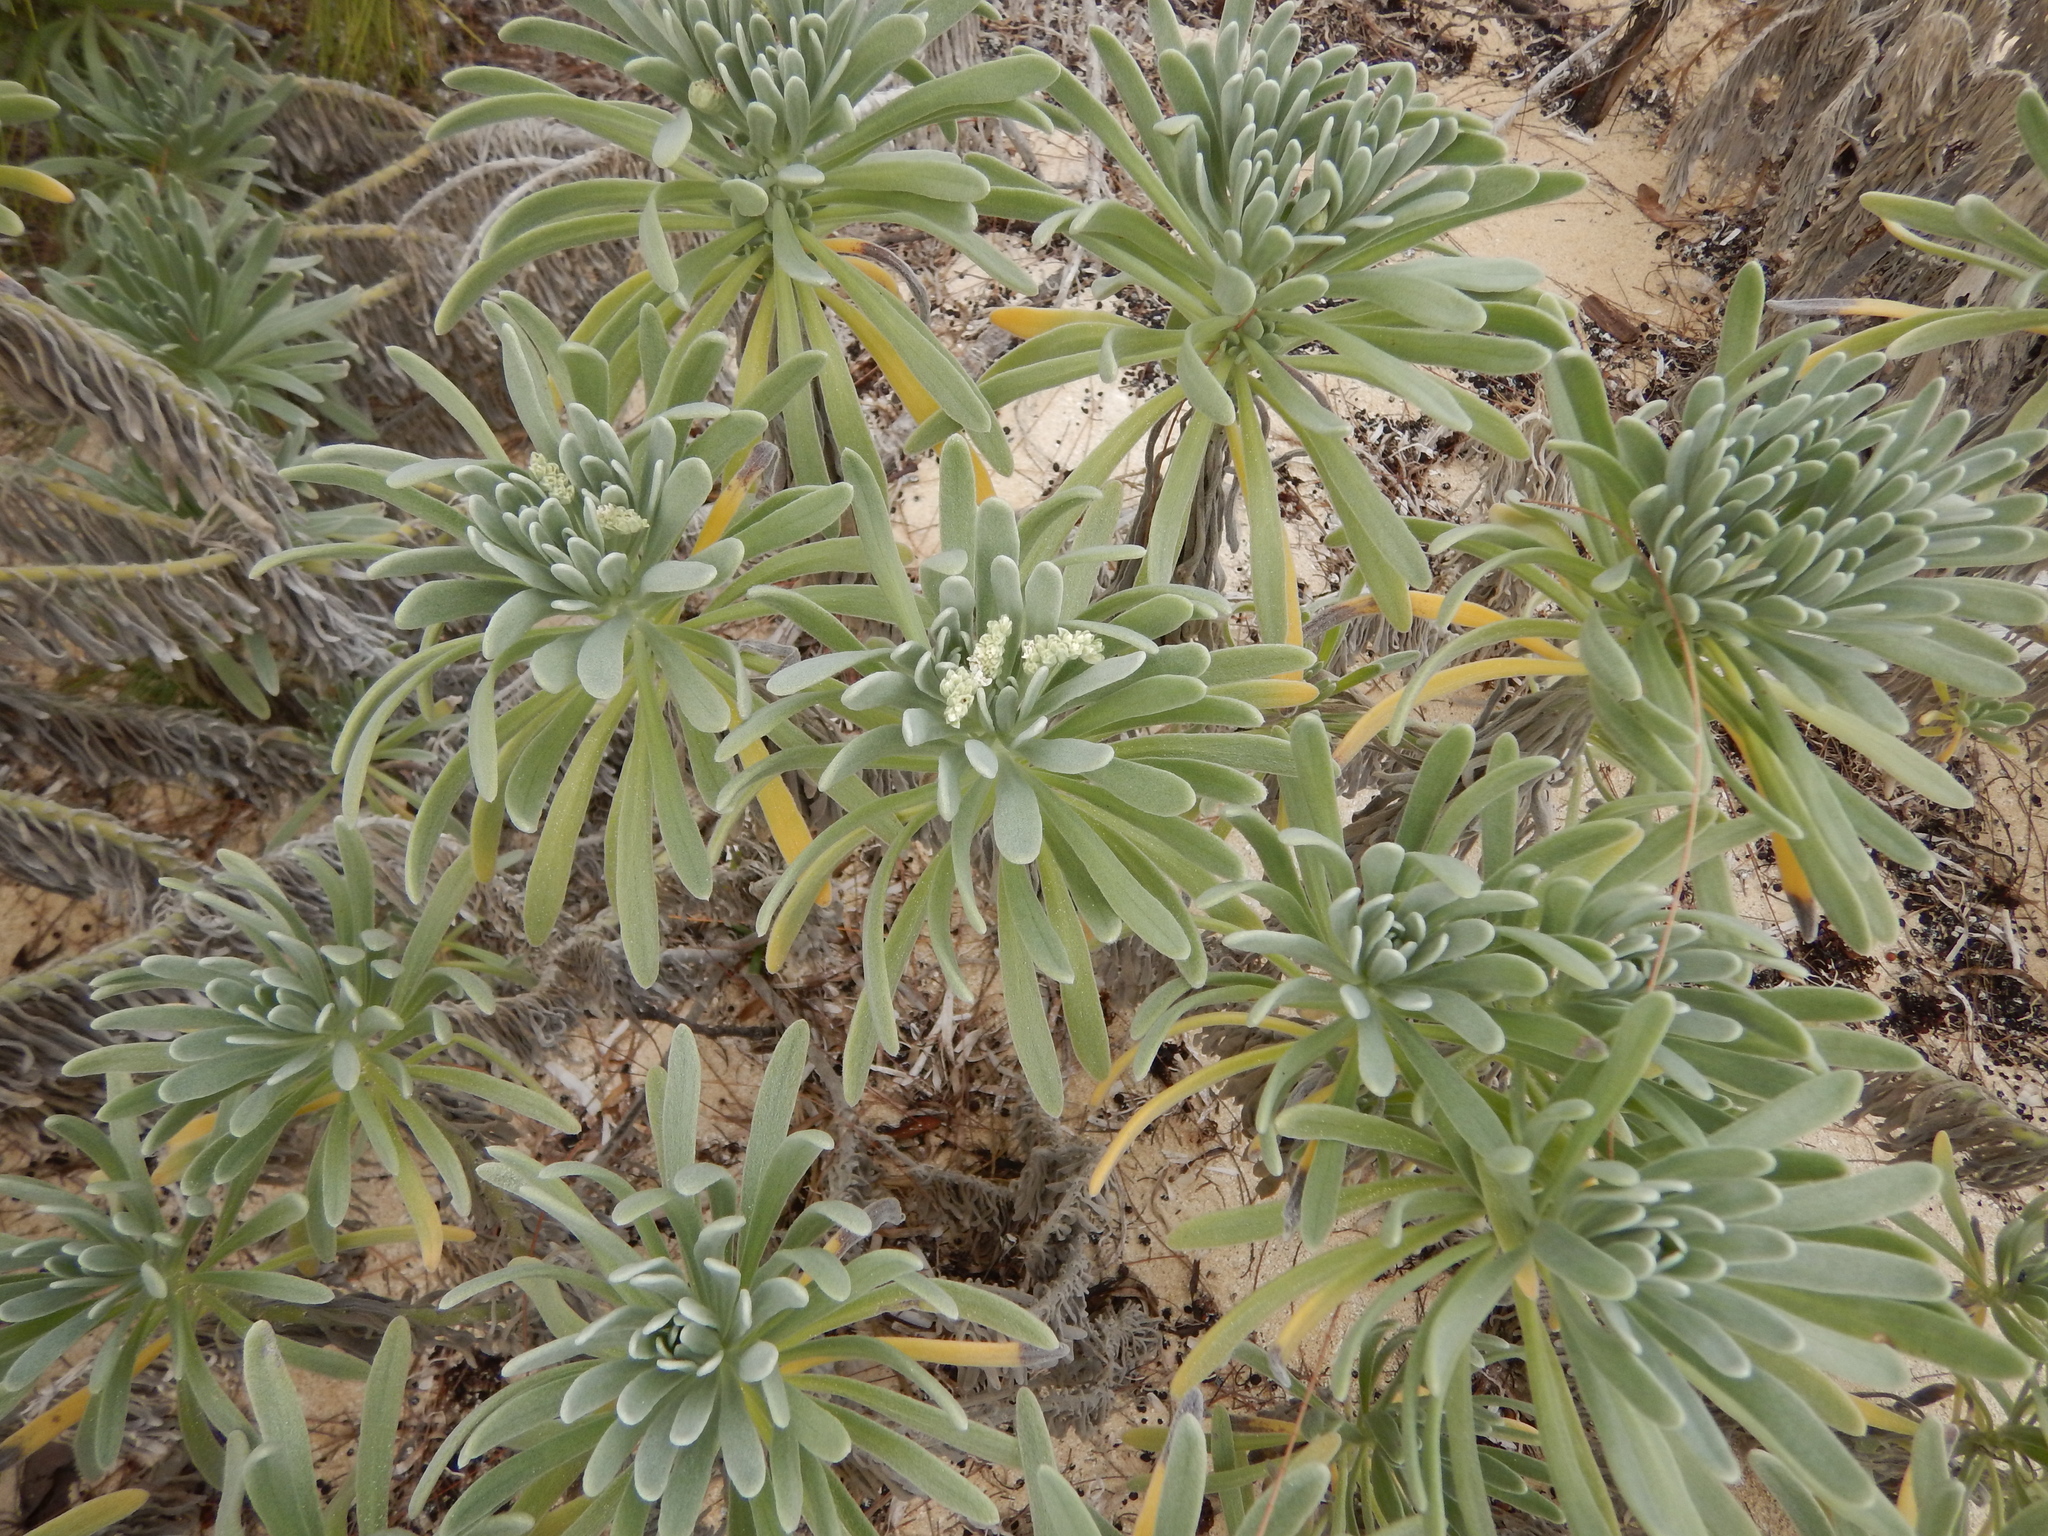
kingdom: Plantae
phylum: Tracheophyta
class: Magnoliopsida
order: Boraginales
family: Heliotropiaceae
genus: Tournefortia
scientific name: Tournefortia gnaphalodes
